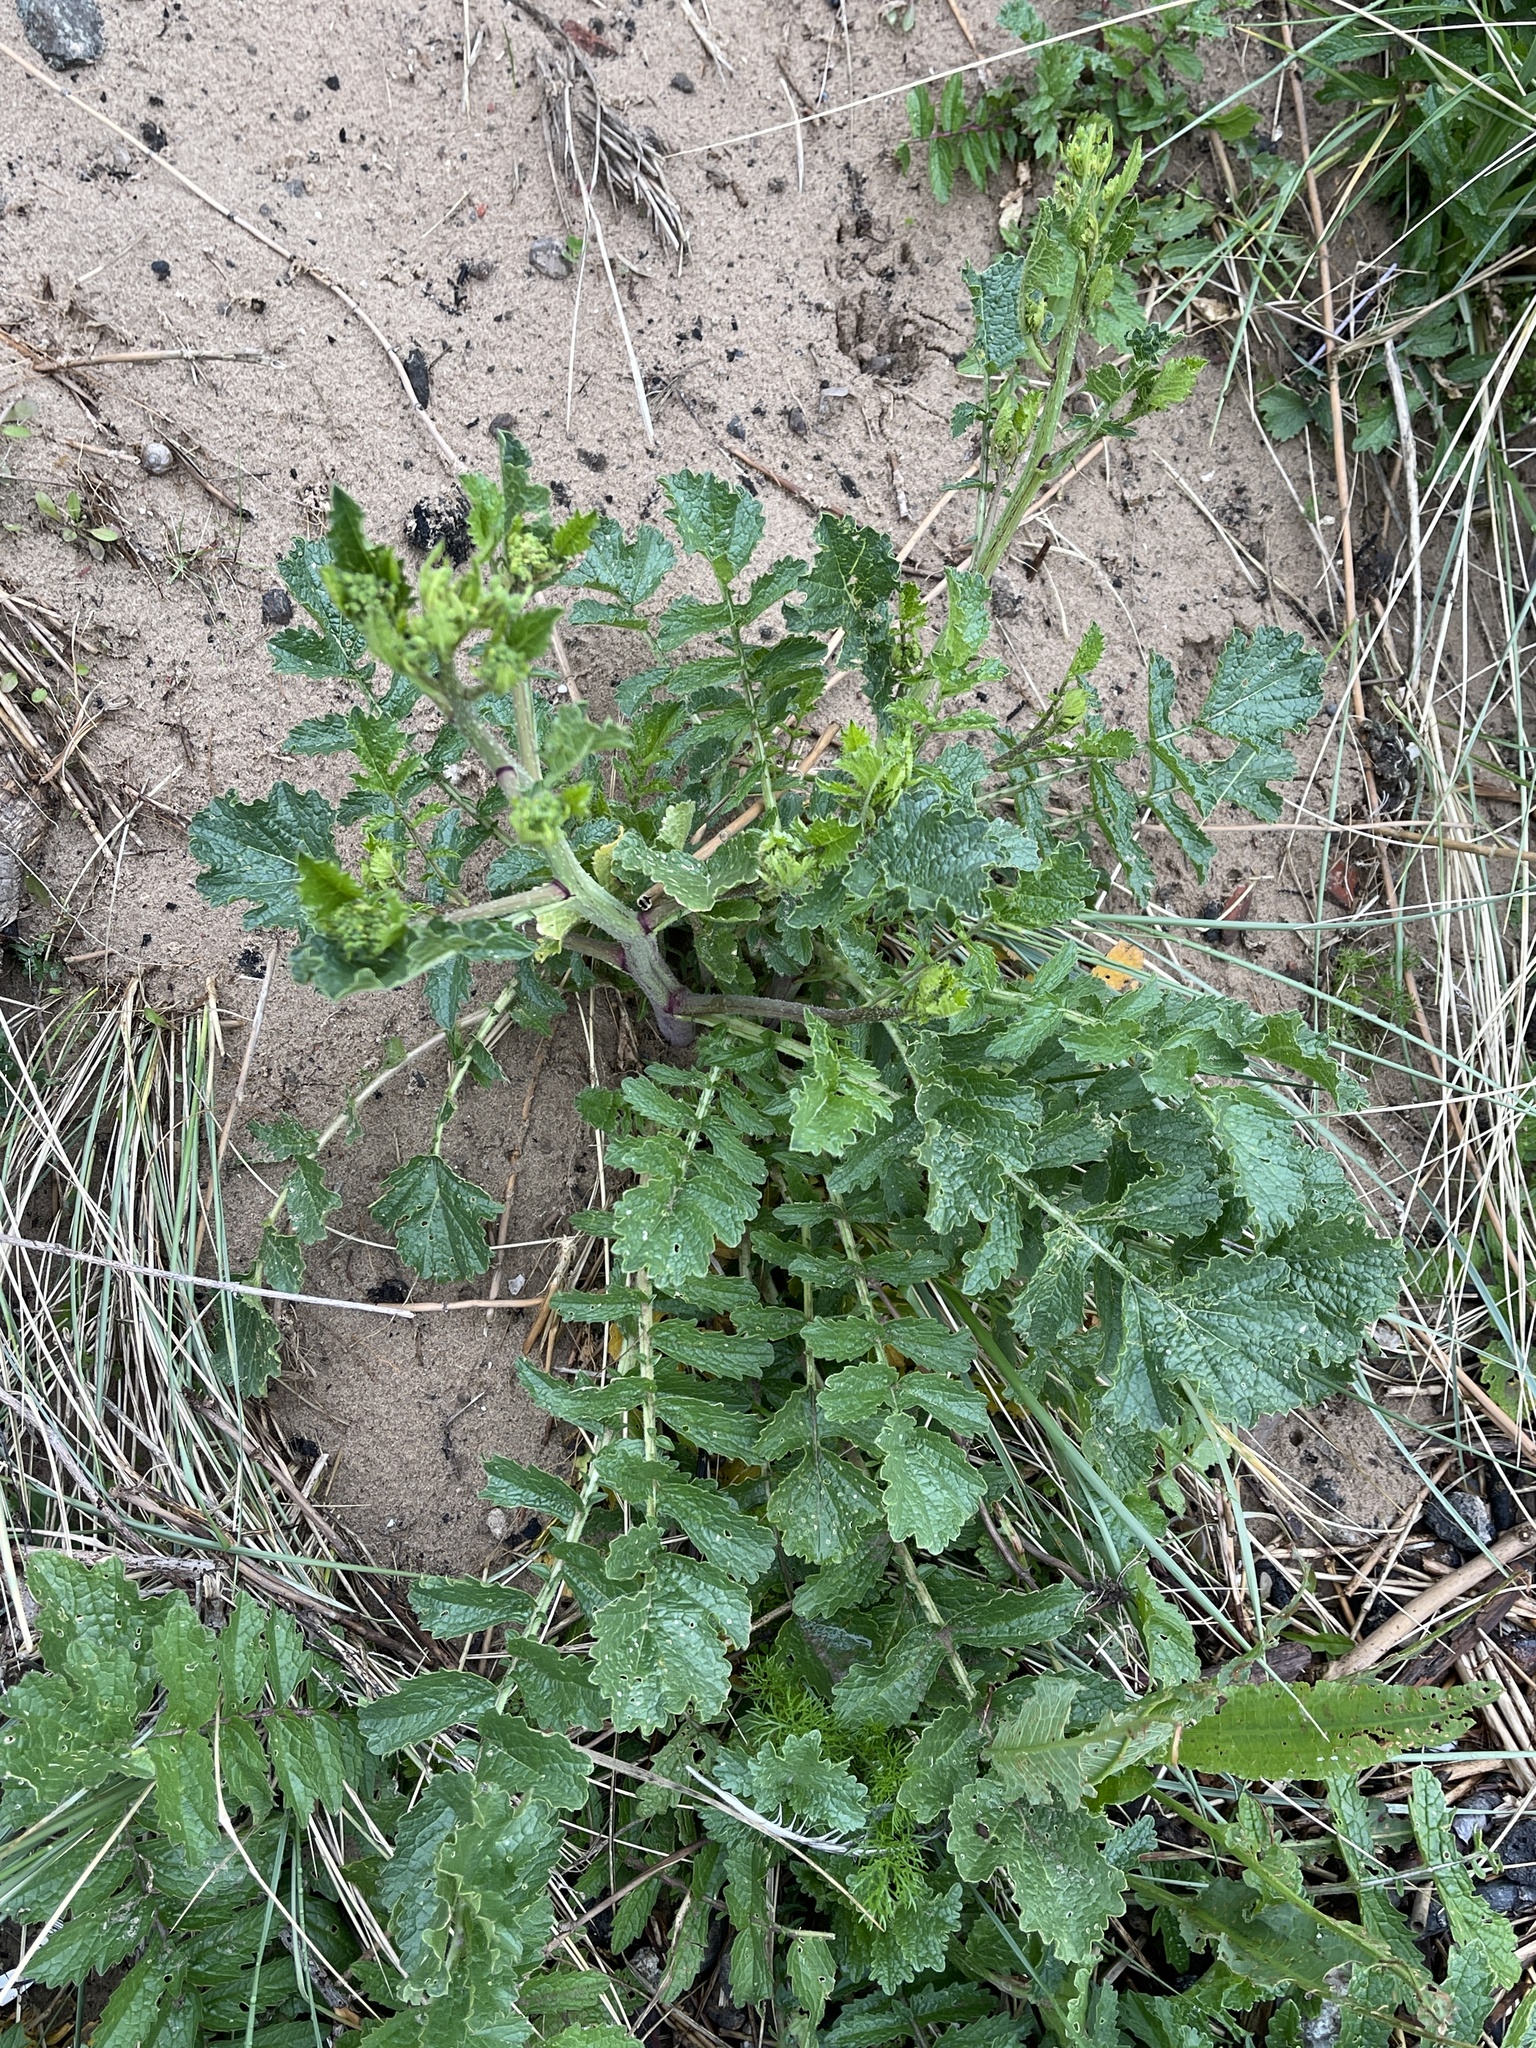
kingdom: Plantae
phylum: Tracheophyta
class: Magnoliopsida
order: Brassicales
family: Brassicaceae
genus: Raphanus
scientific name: Raphanus raphanistrum
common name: Wild radish
